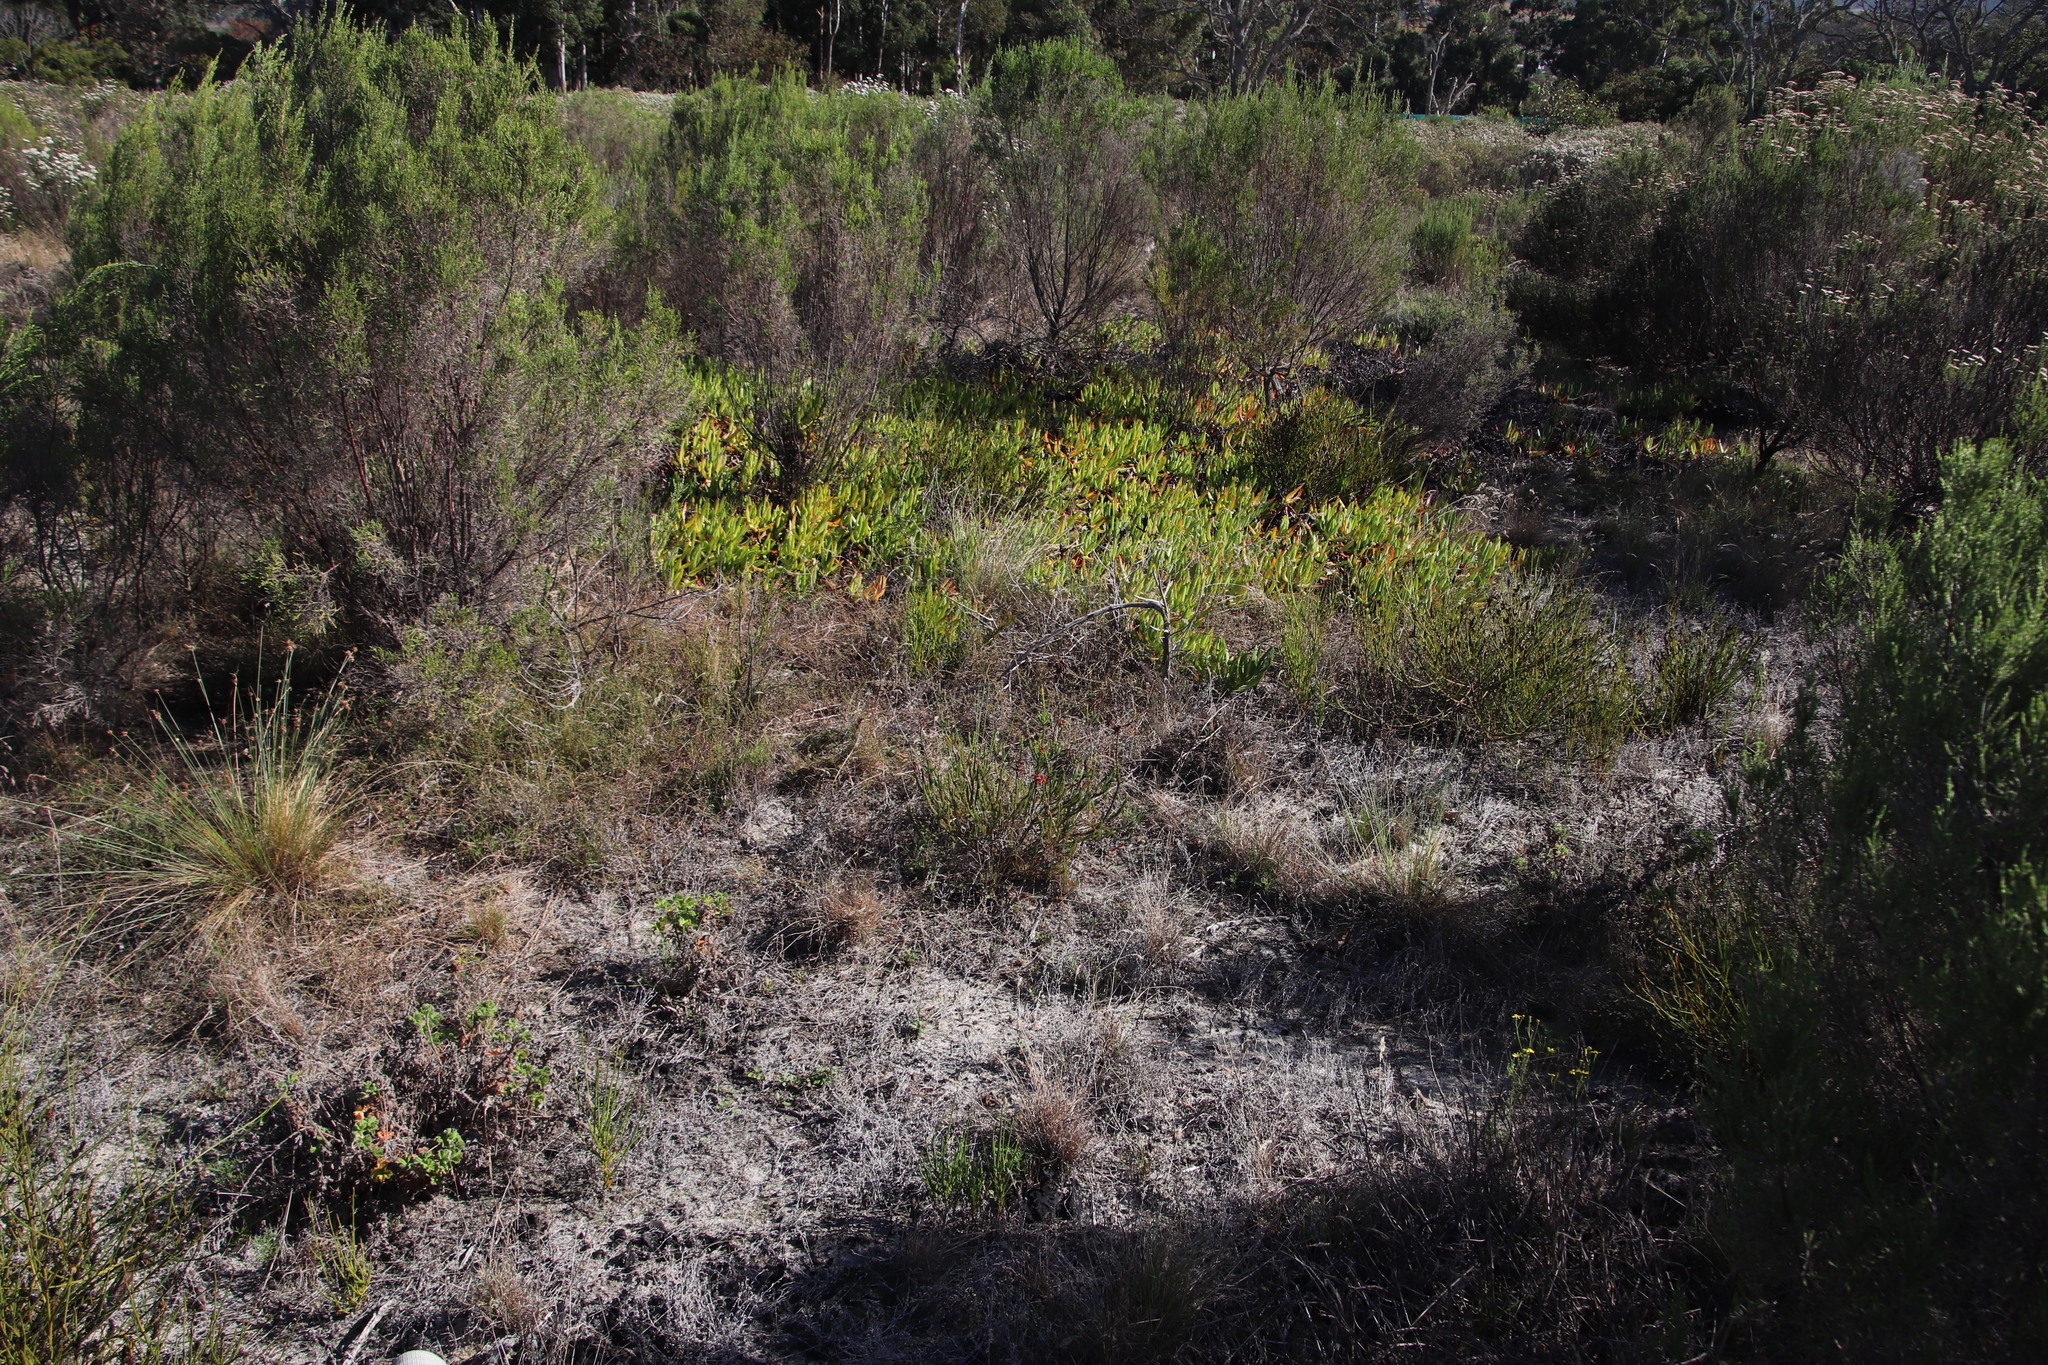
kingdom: Plantae
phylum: Tracheophyta
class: Magnoliopsida
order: Caryophyllales
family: Aizoaceae
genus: Carpobrotus
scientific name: Carpobrotus edulis
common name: Hottentot-fig
